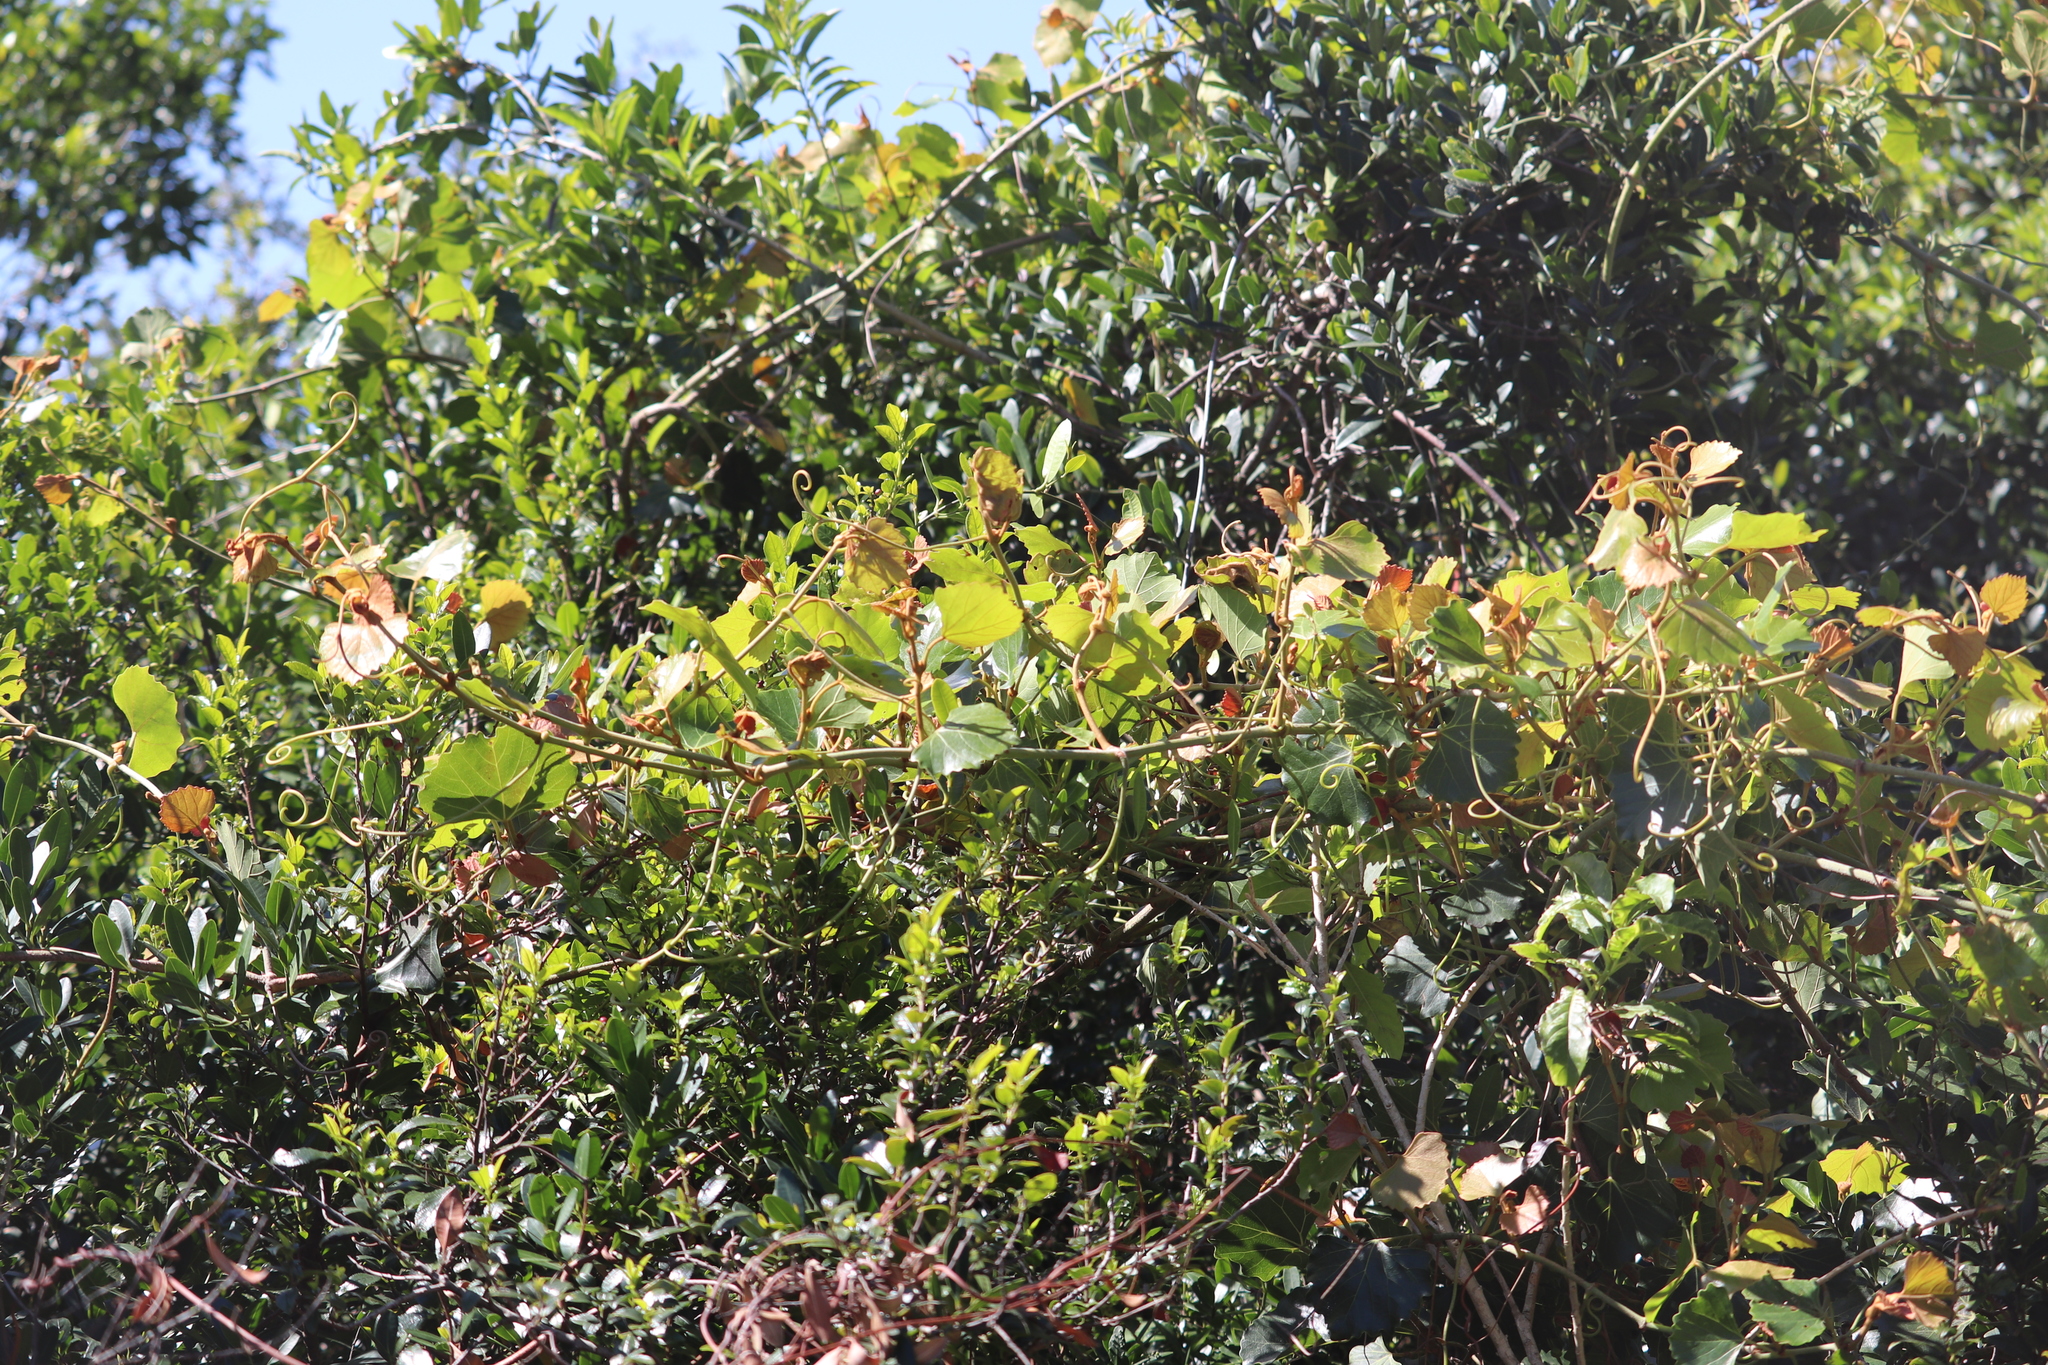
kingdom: Plantae
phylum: Tracheophyta
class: Magnoliopsida
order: Vitales
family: Vitaceae
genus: Rhoicissus
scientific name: Rhoicissus tomentosa
